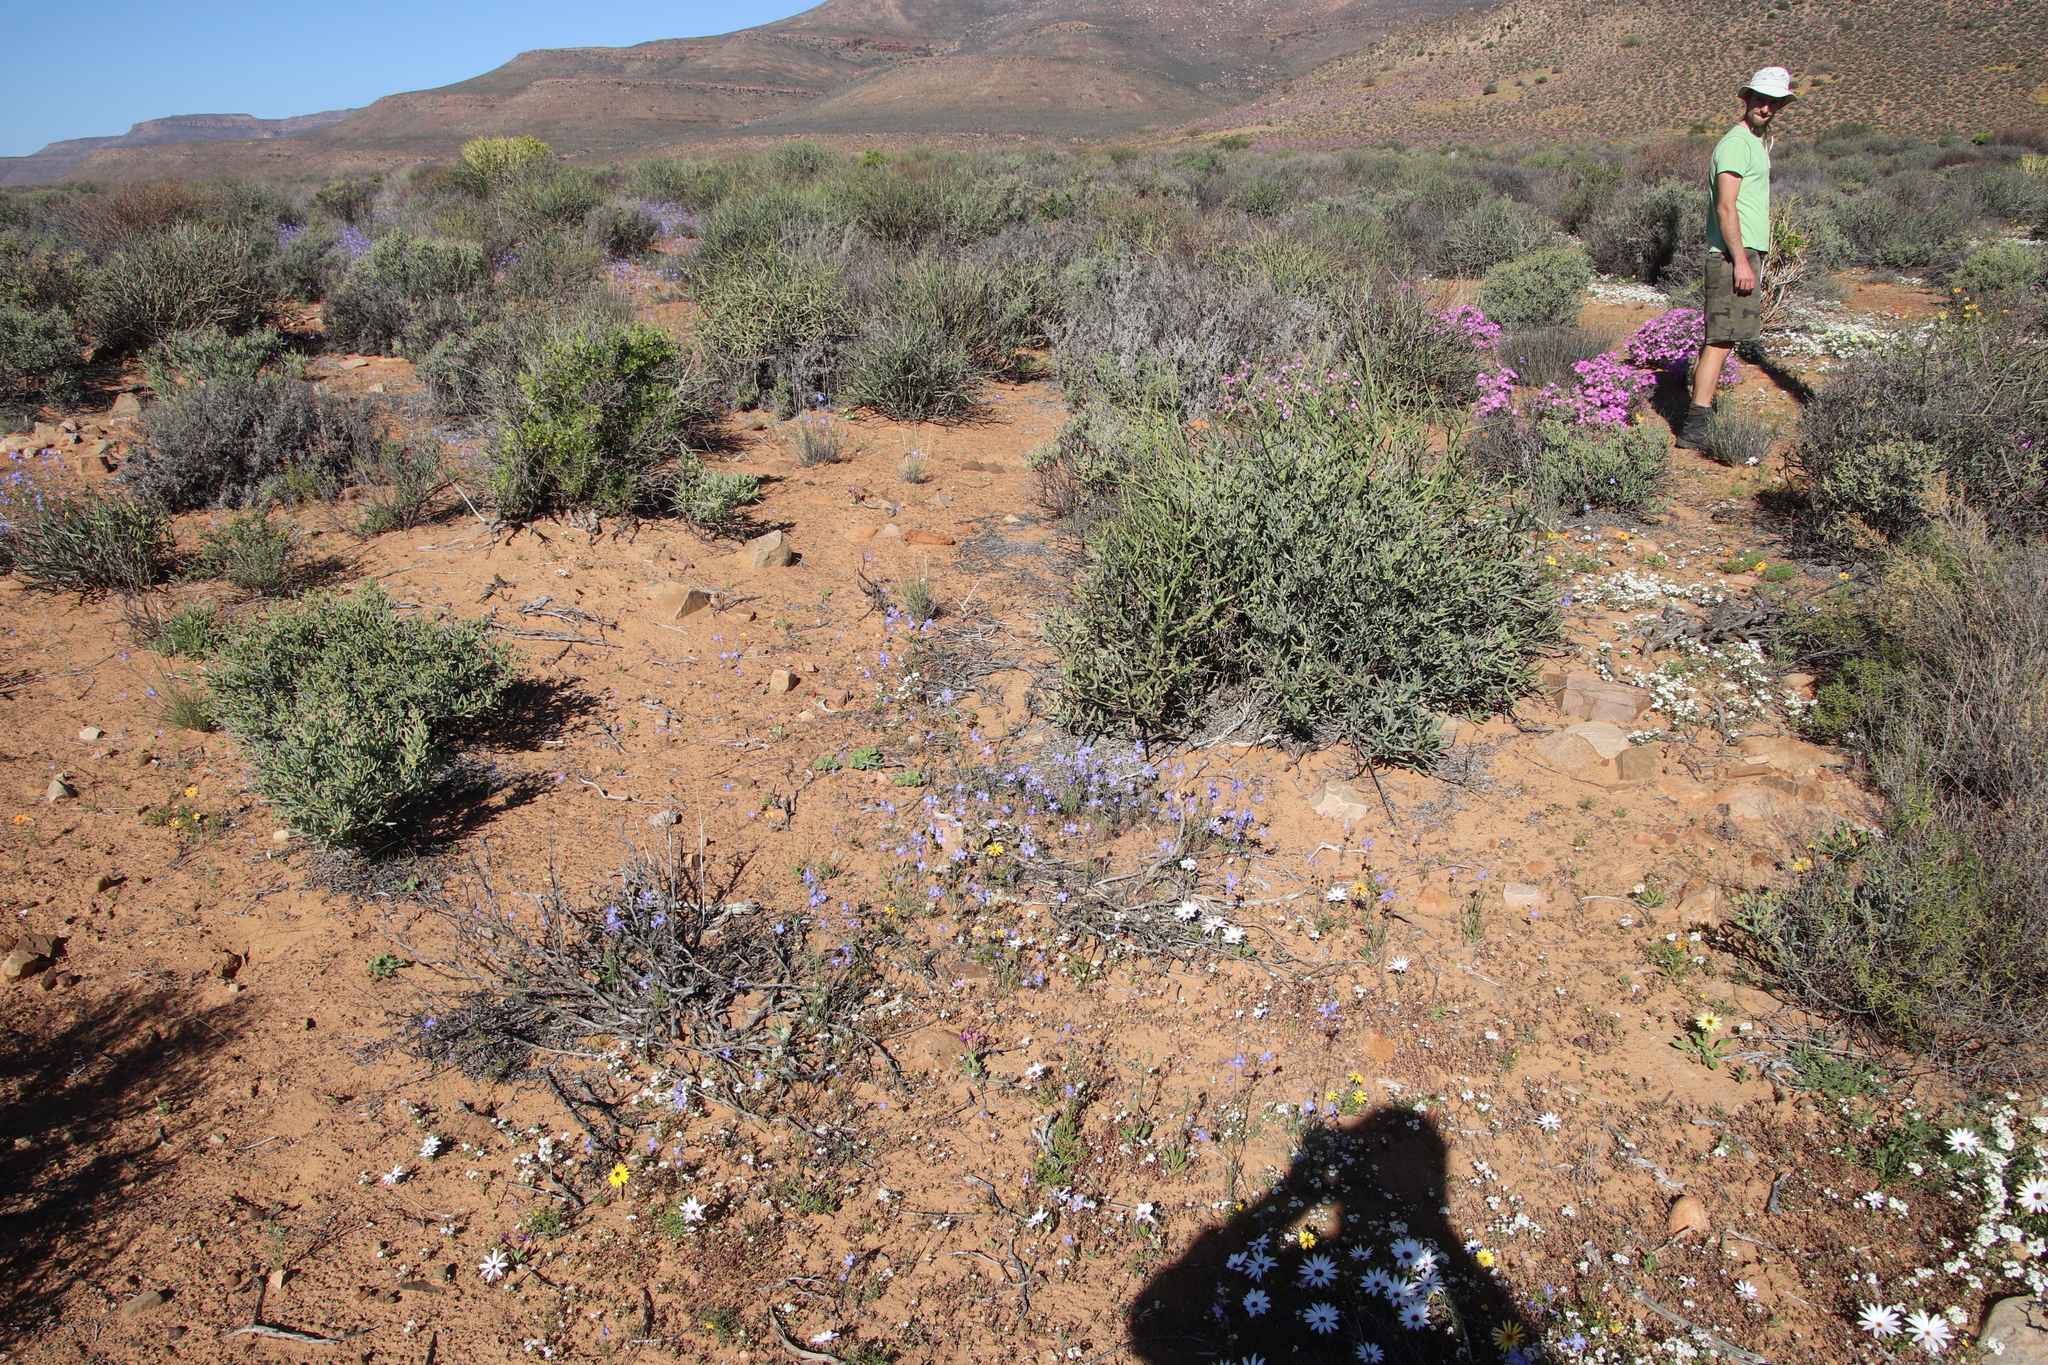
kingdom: Plantae
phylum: Tracheophyta
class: Magnoliopsida
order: Brassicales
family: Brassicaceae
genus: Heliophila
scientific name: Heliophila arenaria
